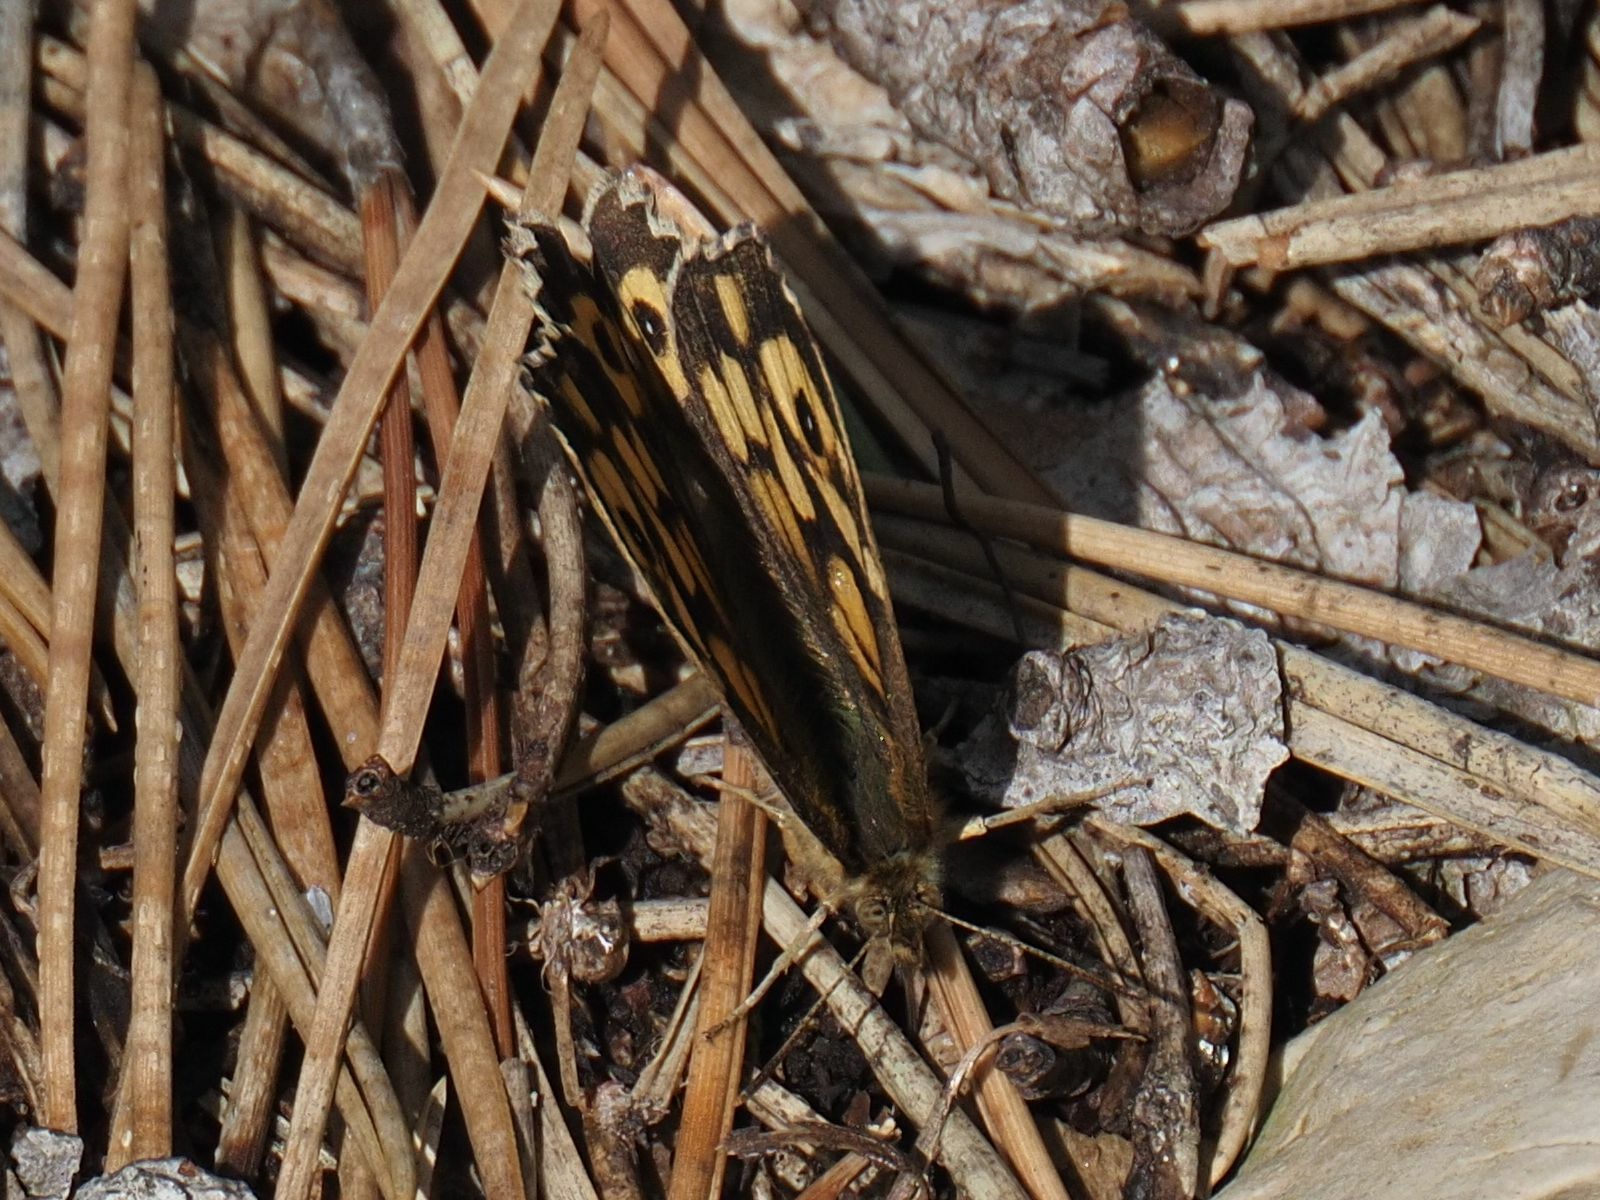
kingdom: Animalia
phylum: Arthropoda
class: Insecta
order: Lepidoptera
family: Nymphalidae
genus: Pararge
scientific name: Pararge aegeria
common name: Speckled wood
